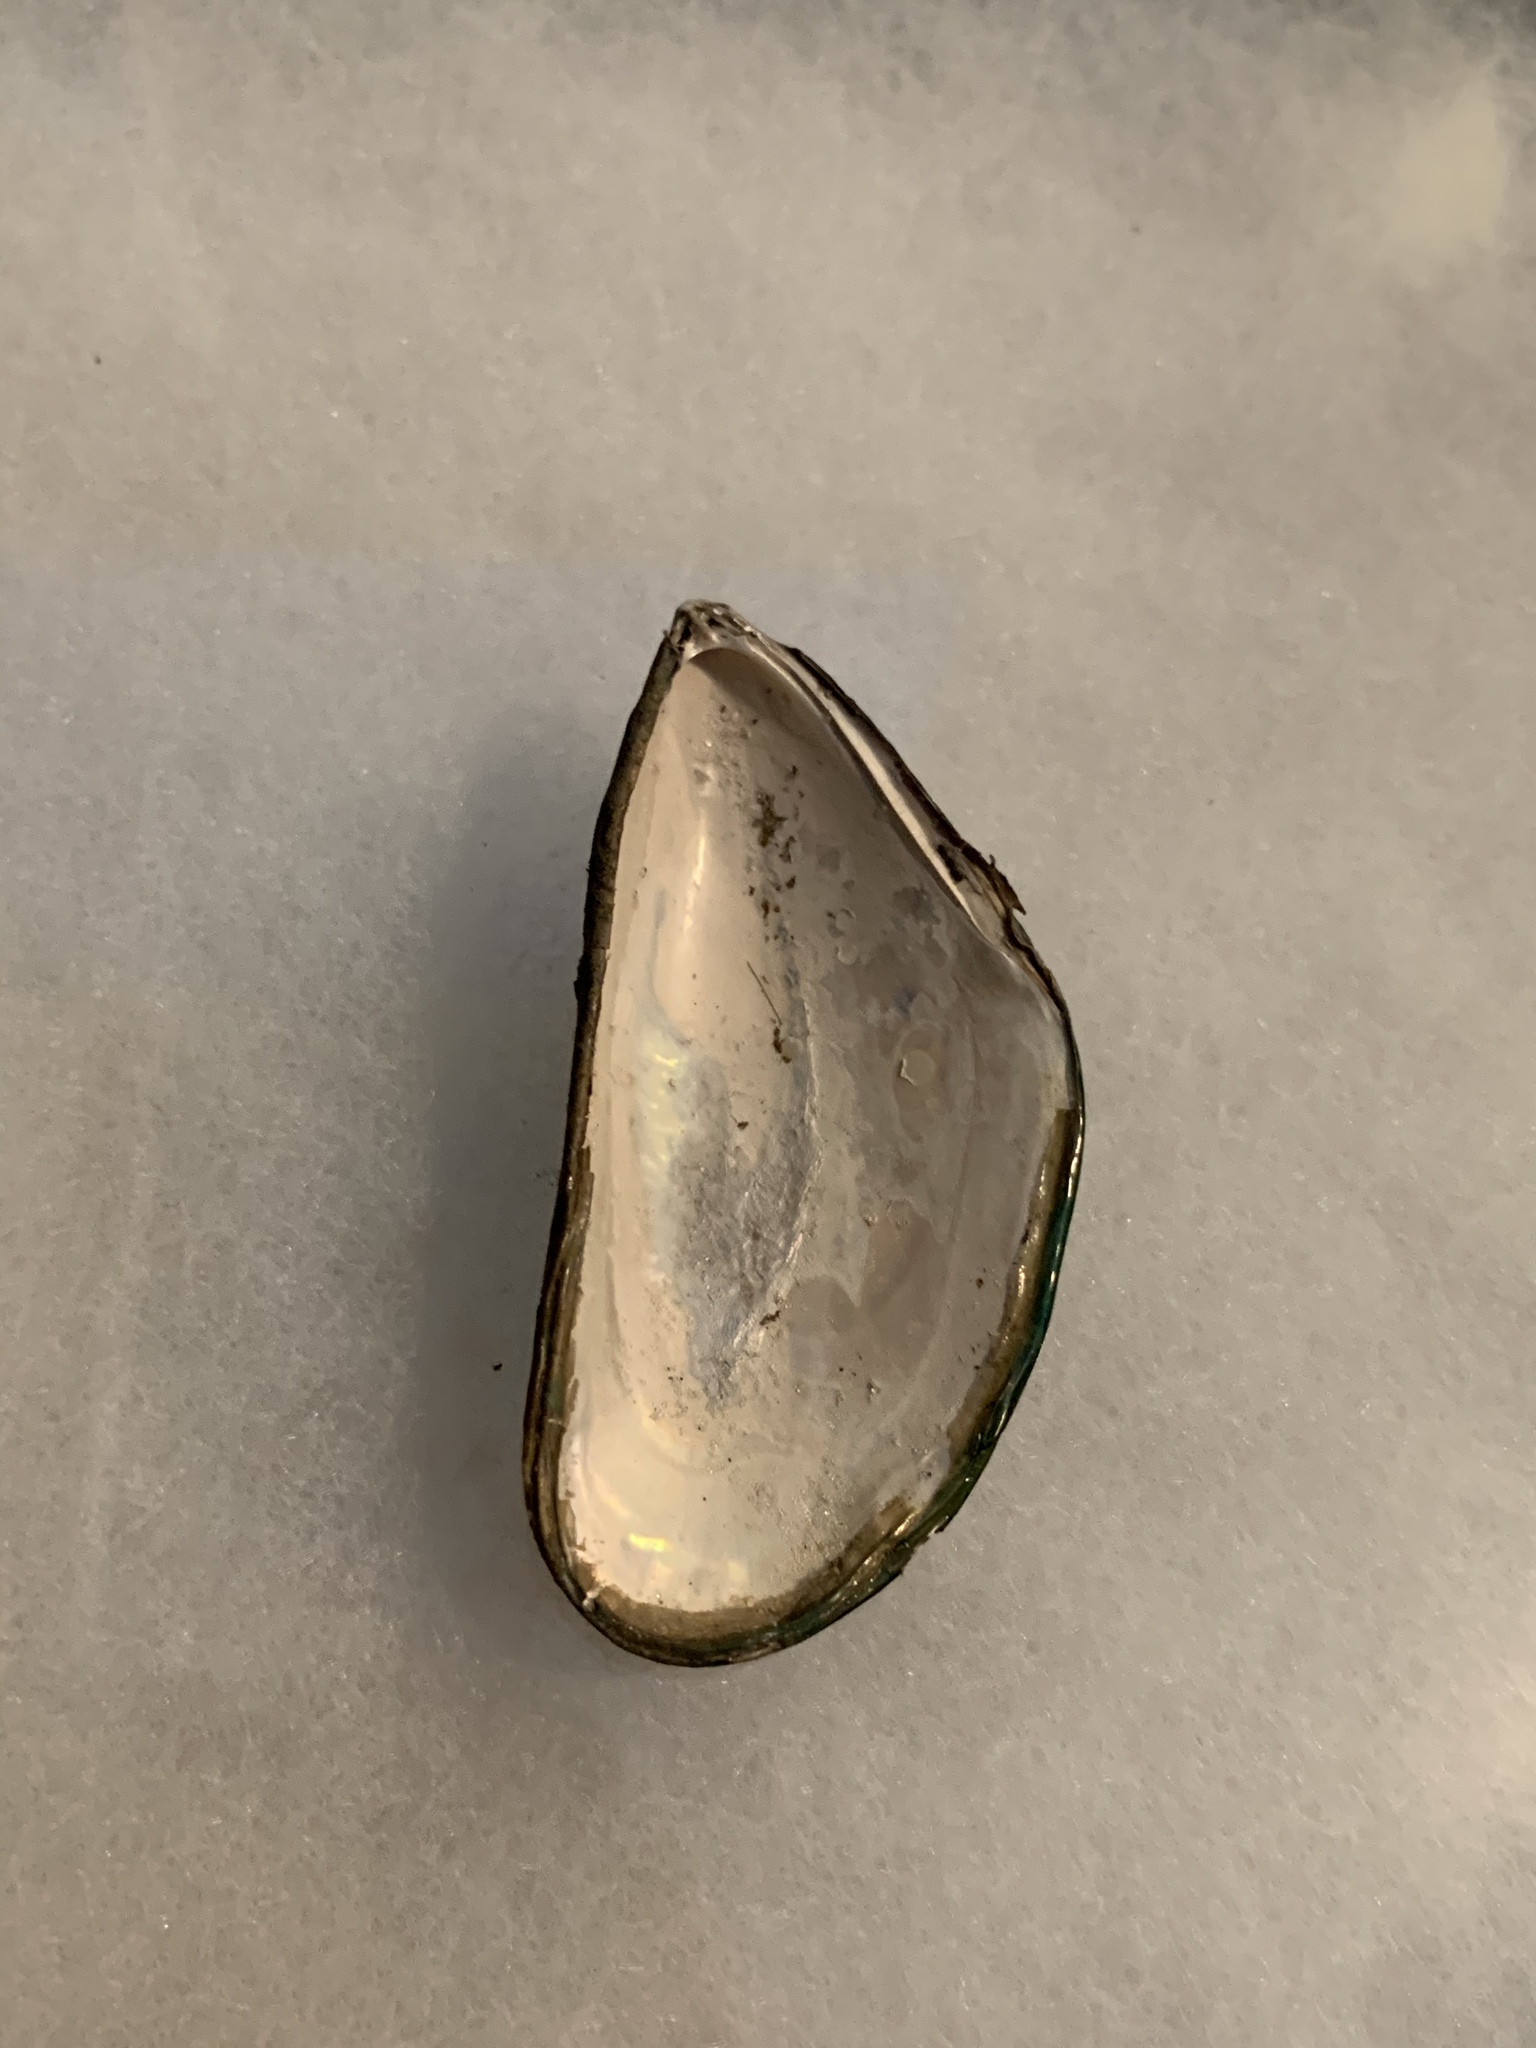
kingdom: Animalia
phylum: Mollusca
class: Bivalvia
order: Mytilida
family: Mytilidae
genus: Perna
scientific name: Perna viridis
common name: Green mussel
